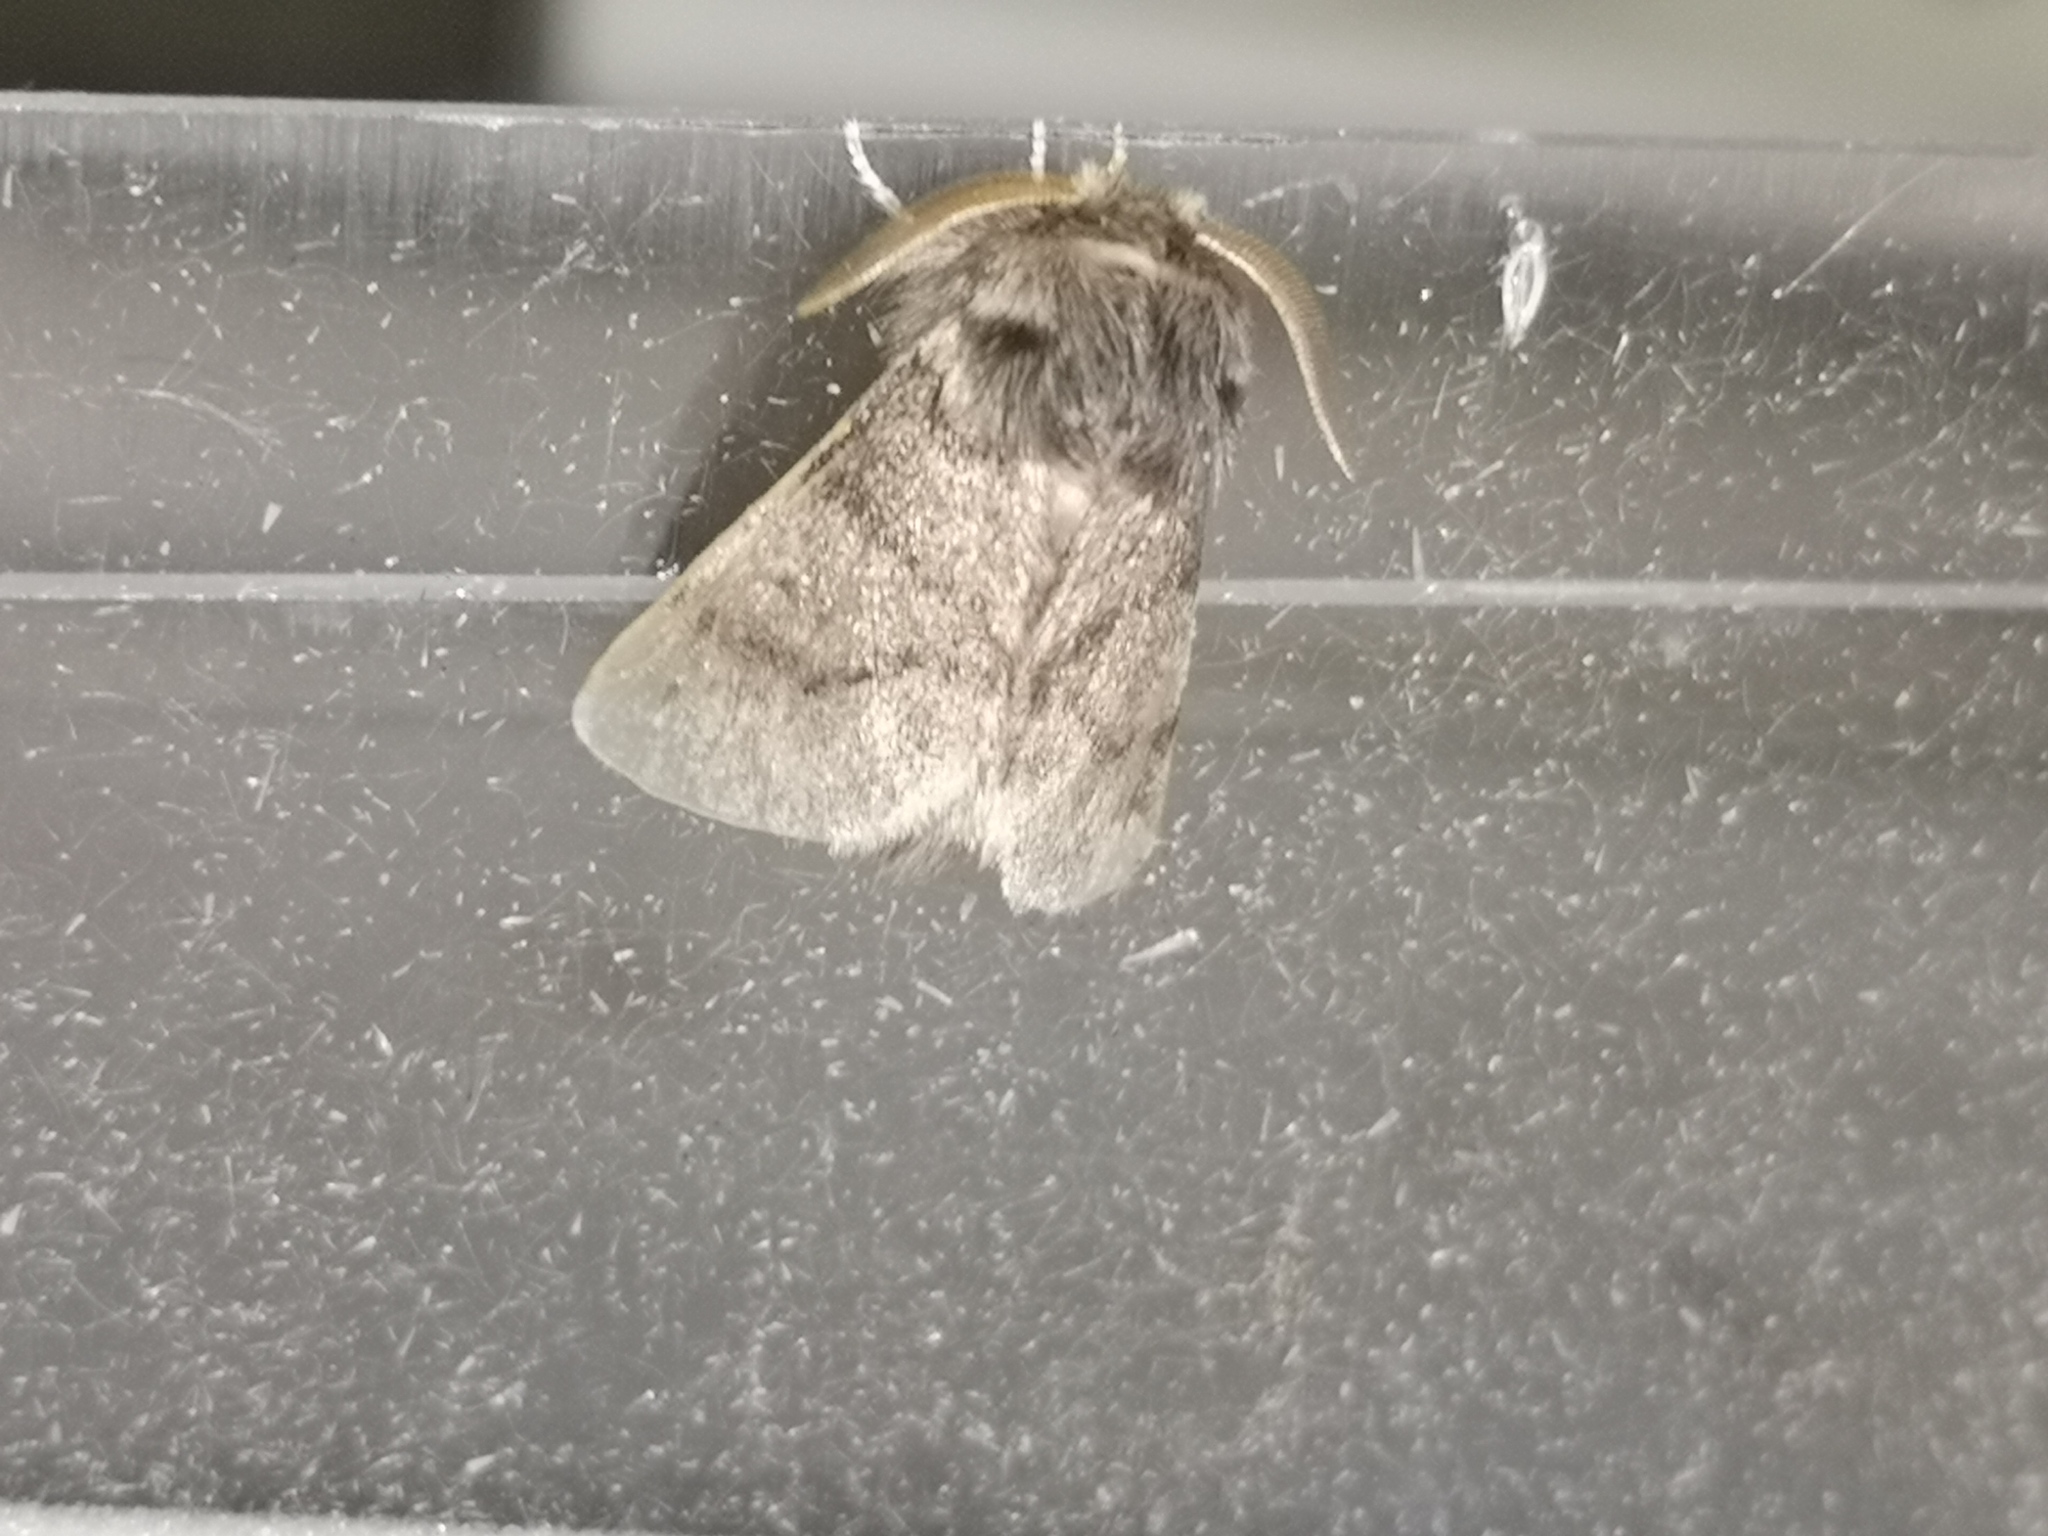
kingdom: Animalia
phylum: Arthropoda
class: Insecta
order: Lepidoptera
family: Notodontidae
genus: Thaumetopoea
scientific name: Thaumetopoea processionea
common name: Oak processionea
